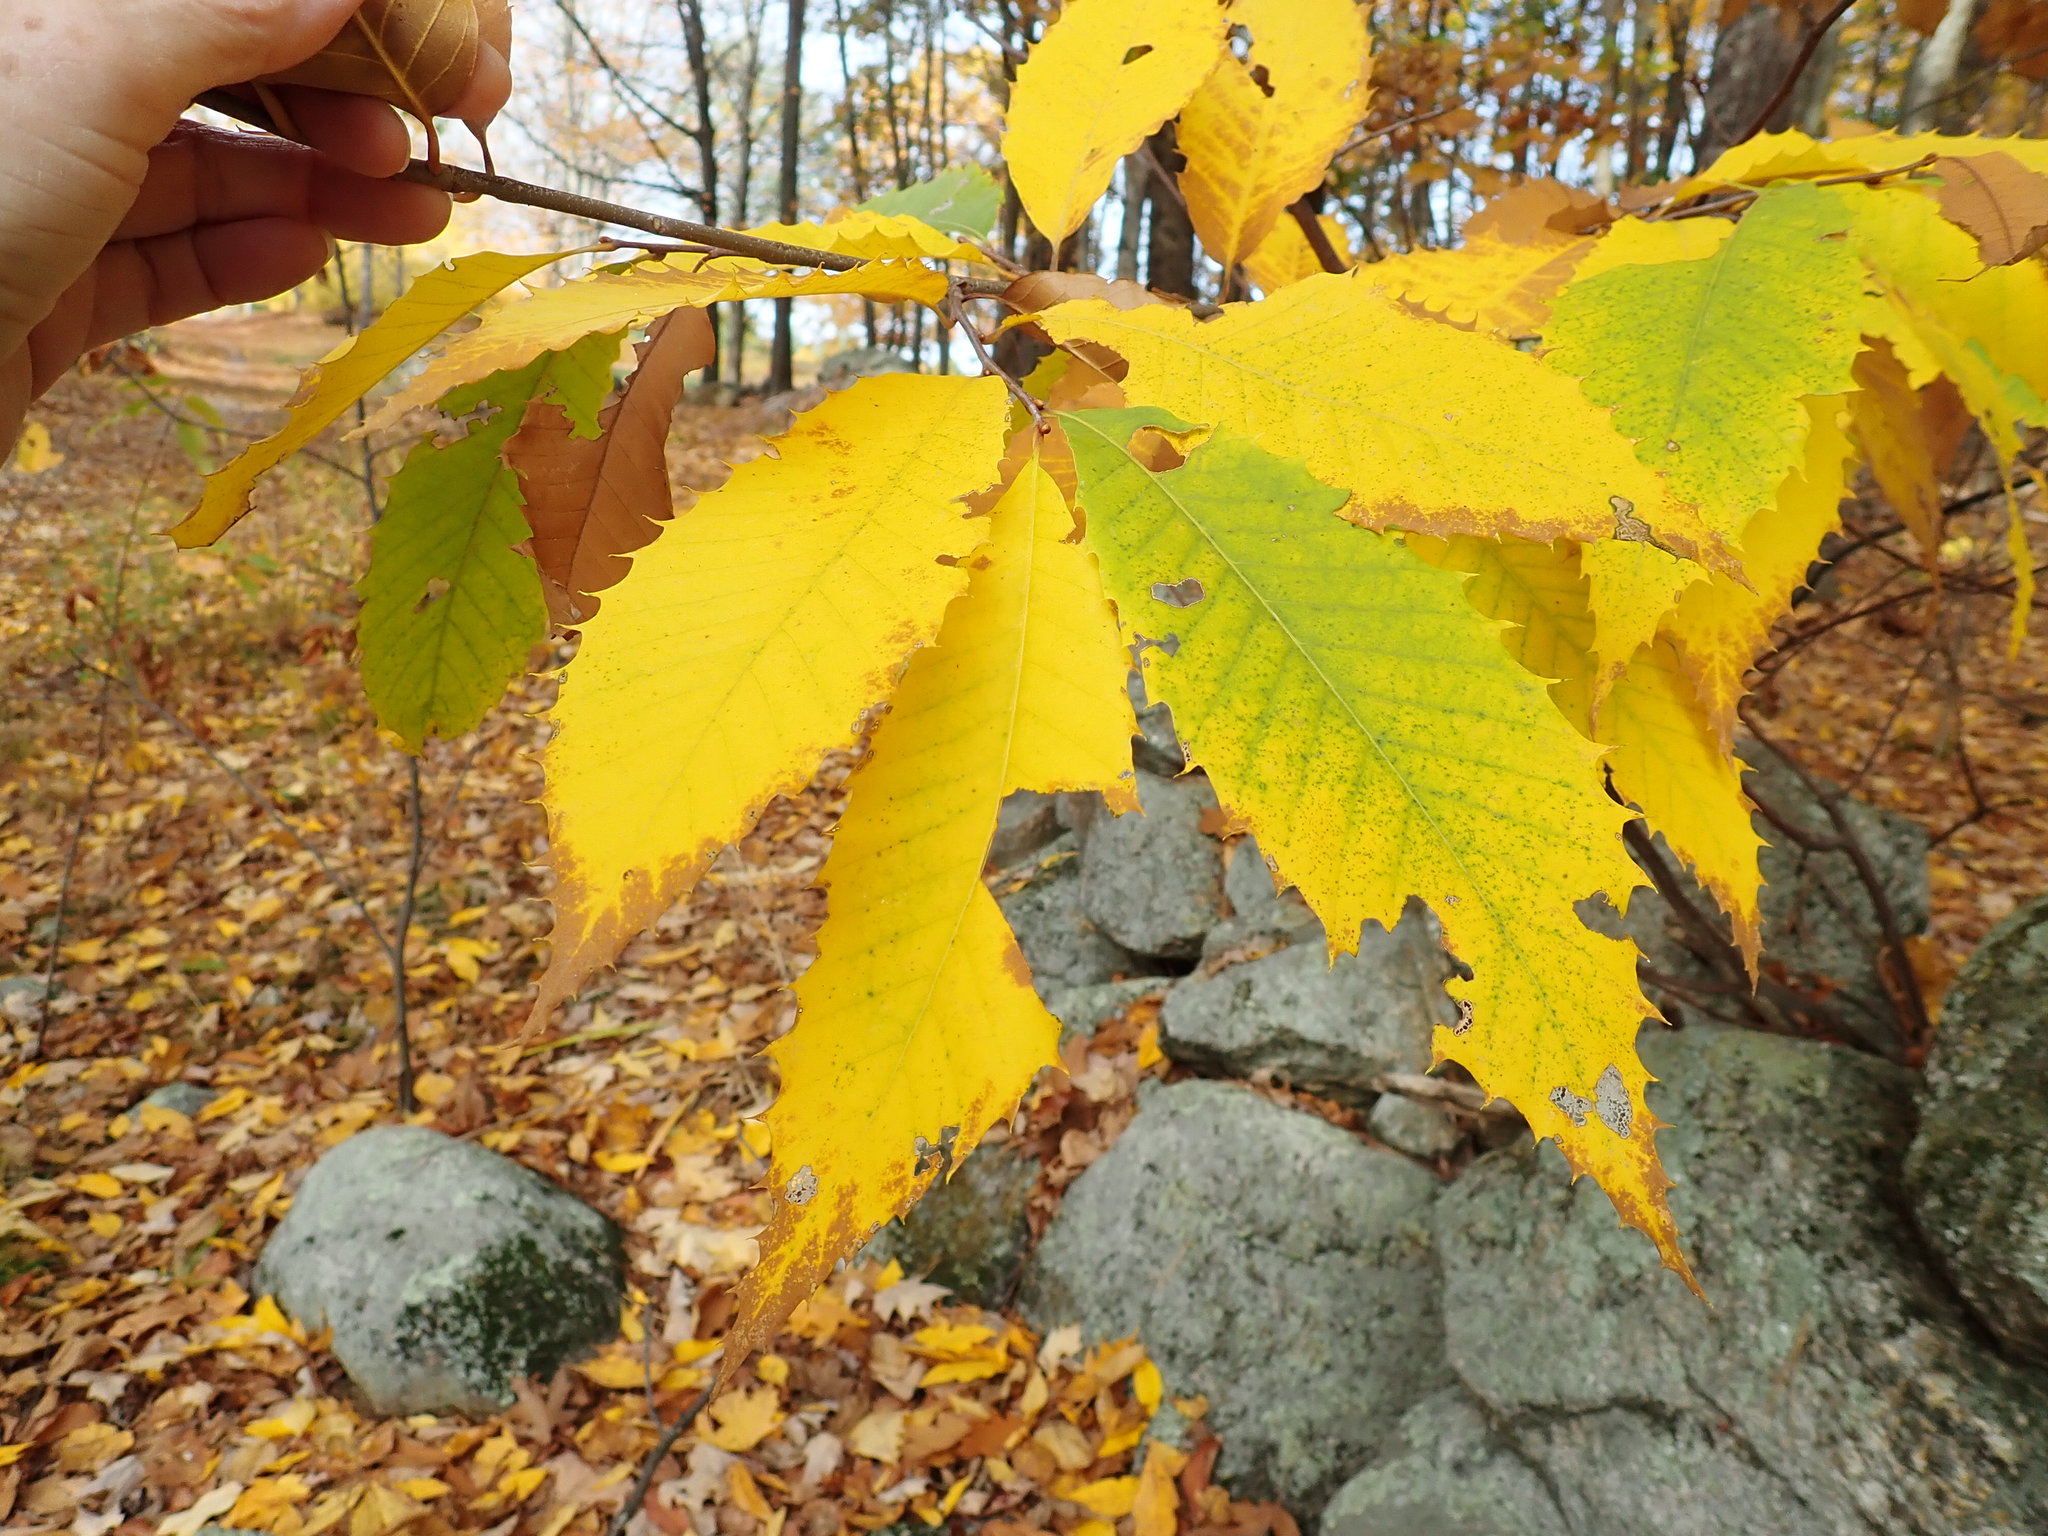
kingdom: Plantae
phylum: Tracheophyta
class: Magnoliopsida
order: Fagales
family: Fagaceae
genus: Castanea
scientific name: Castanea dentata
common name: American chestnut
